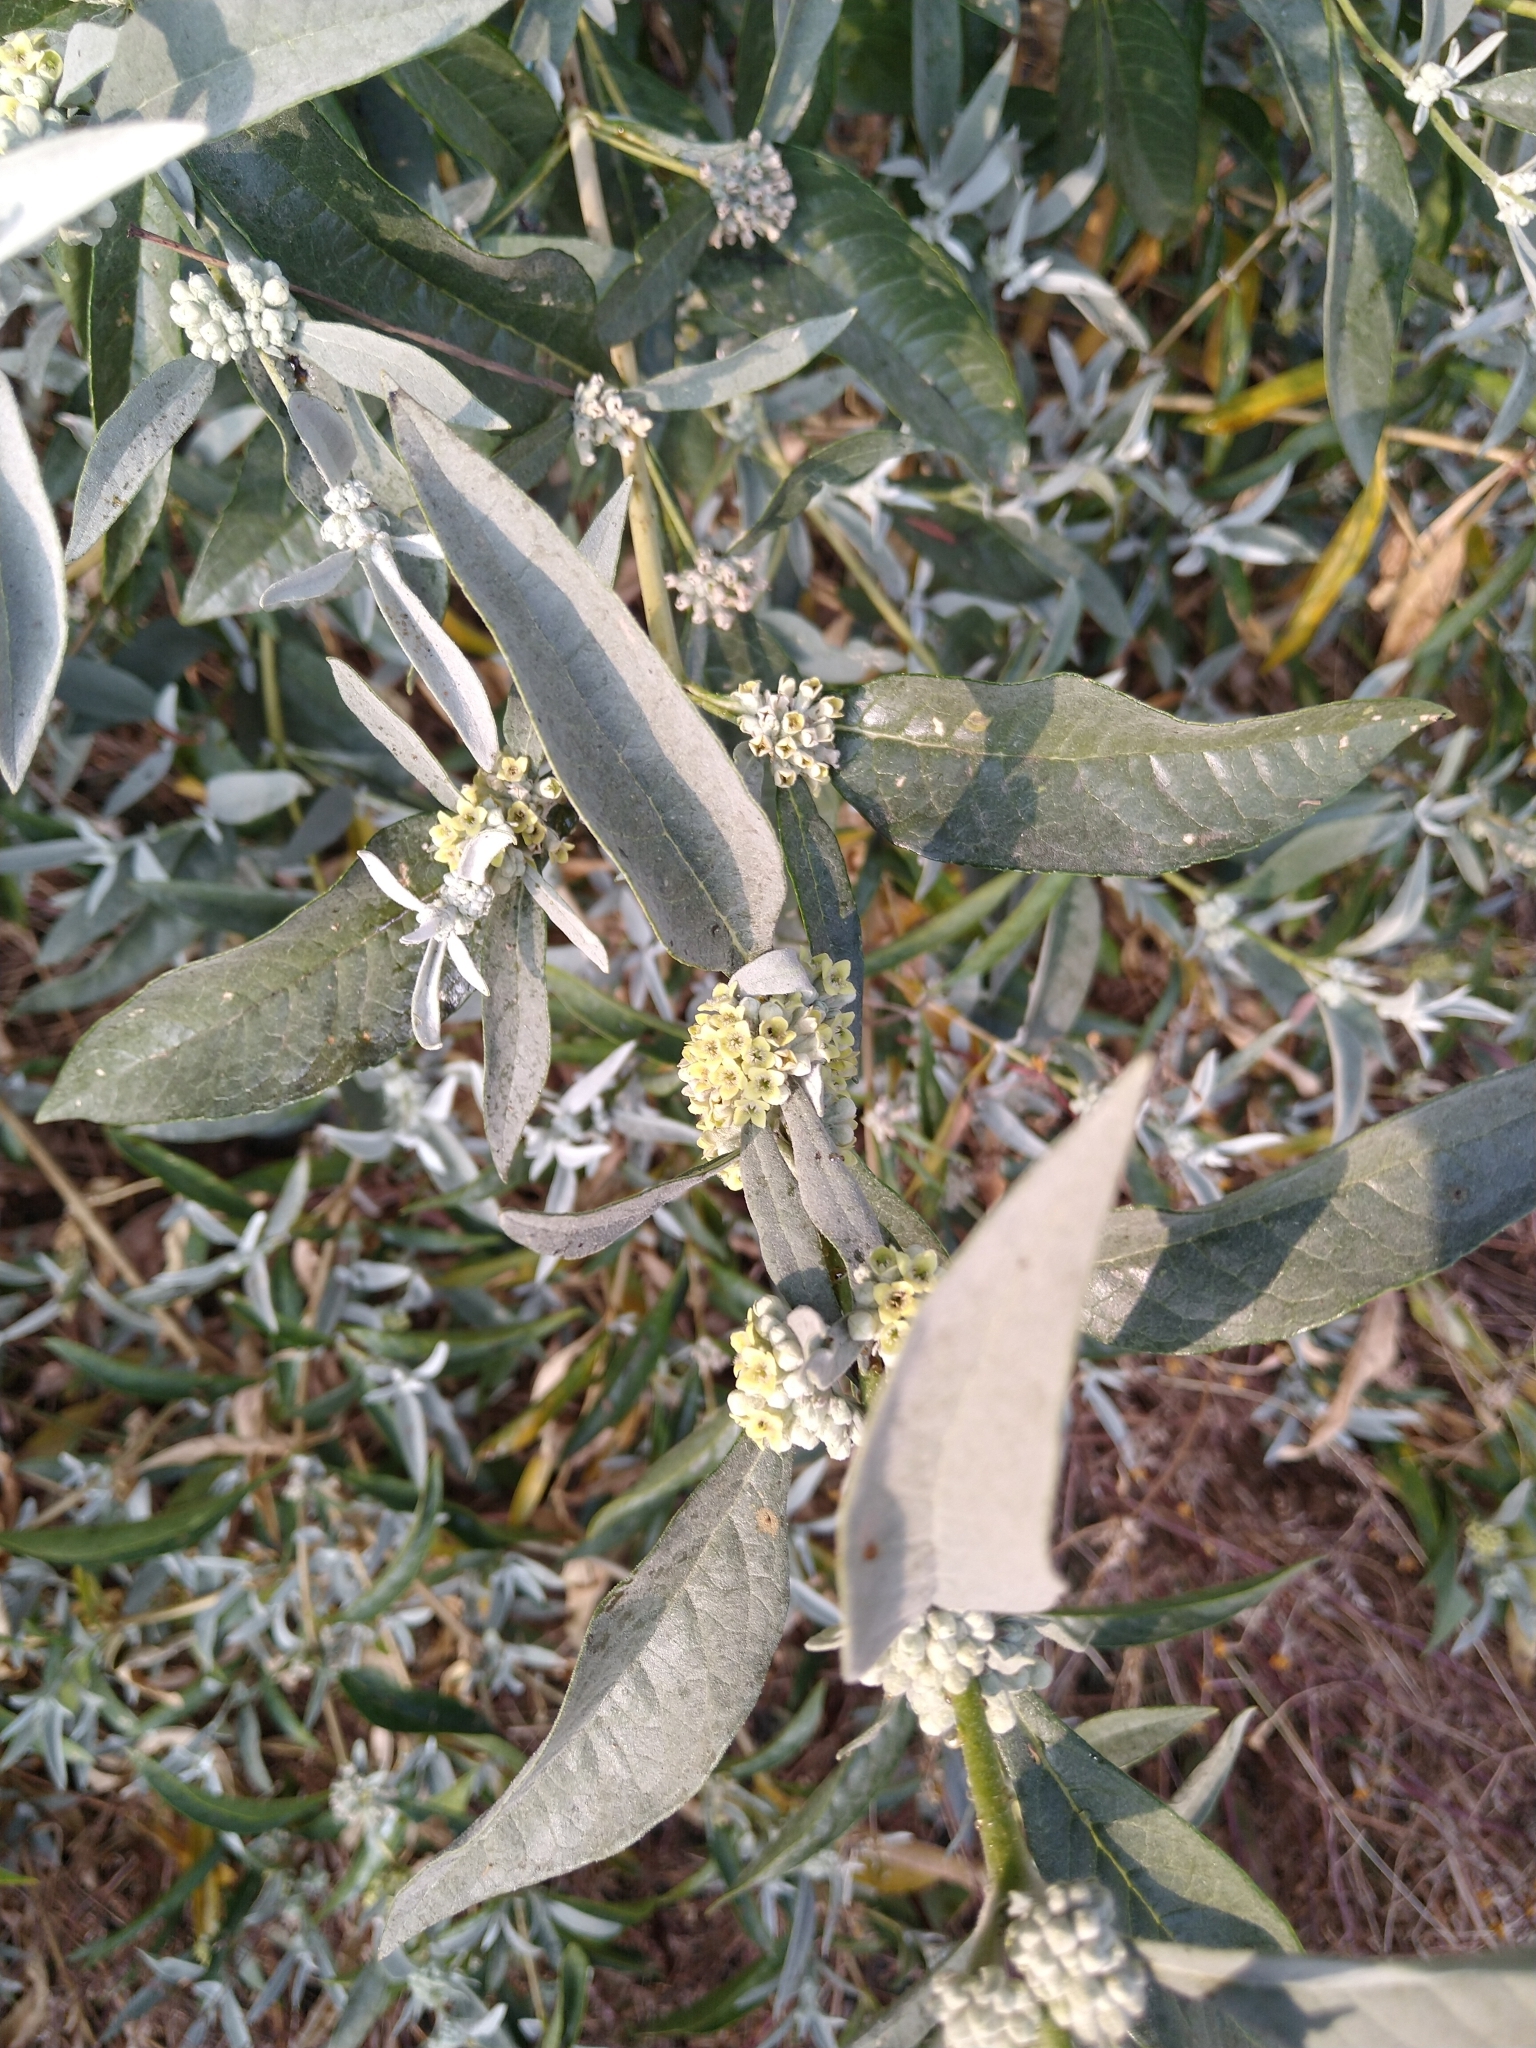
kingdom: Plantae
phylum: Tracheophyta
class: Magnoliopsida
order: Lamiales
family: Scrophulariaceae
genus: Buddleja
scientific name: Buddleja sessiliflora
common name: Rio grande butterfly-bush
